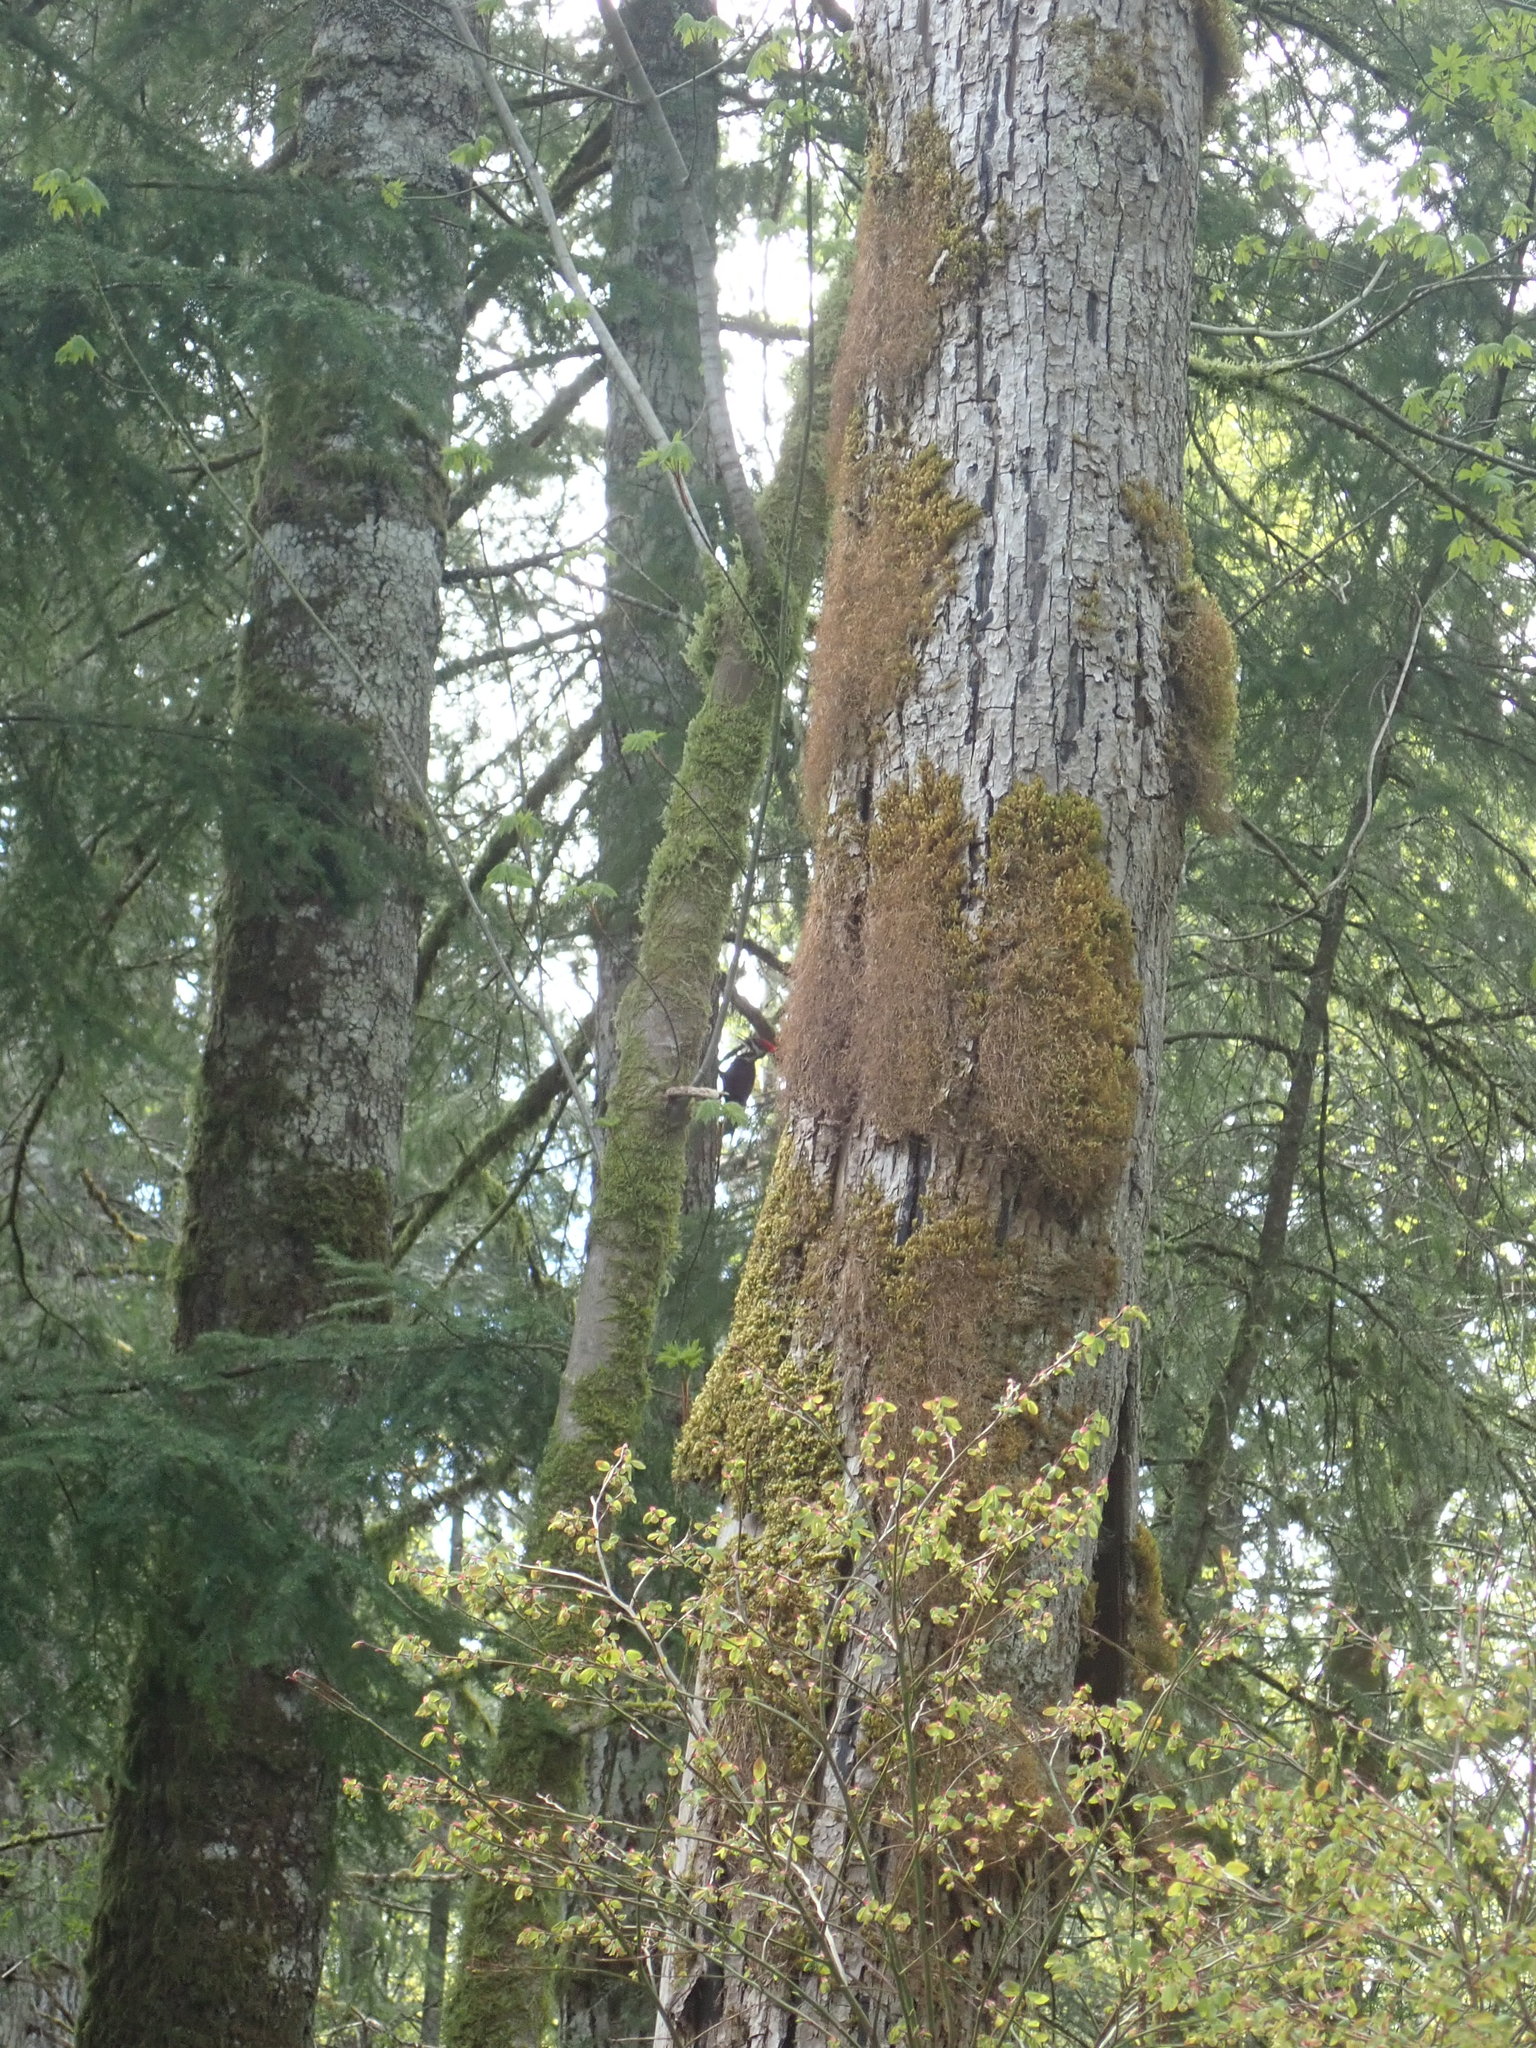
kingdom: Animalia
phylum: Chordata
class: Aves
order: Piciformes
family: Picidae
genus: Dryocopus
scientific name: Dryocopus pileatus
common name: Pileated woodpecker
